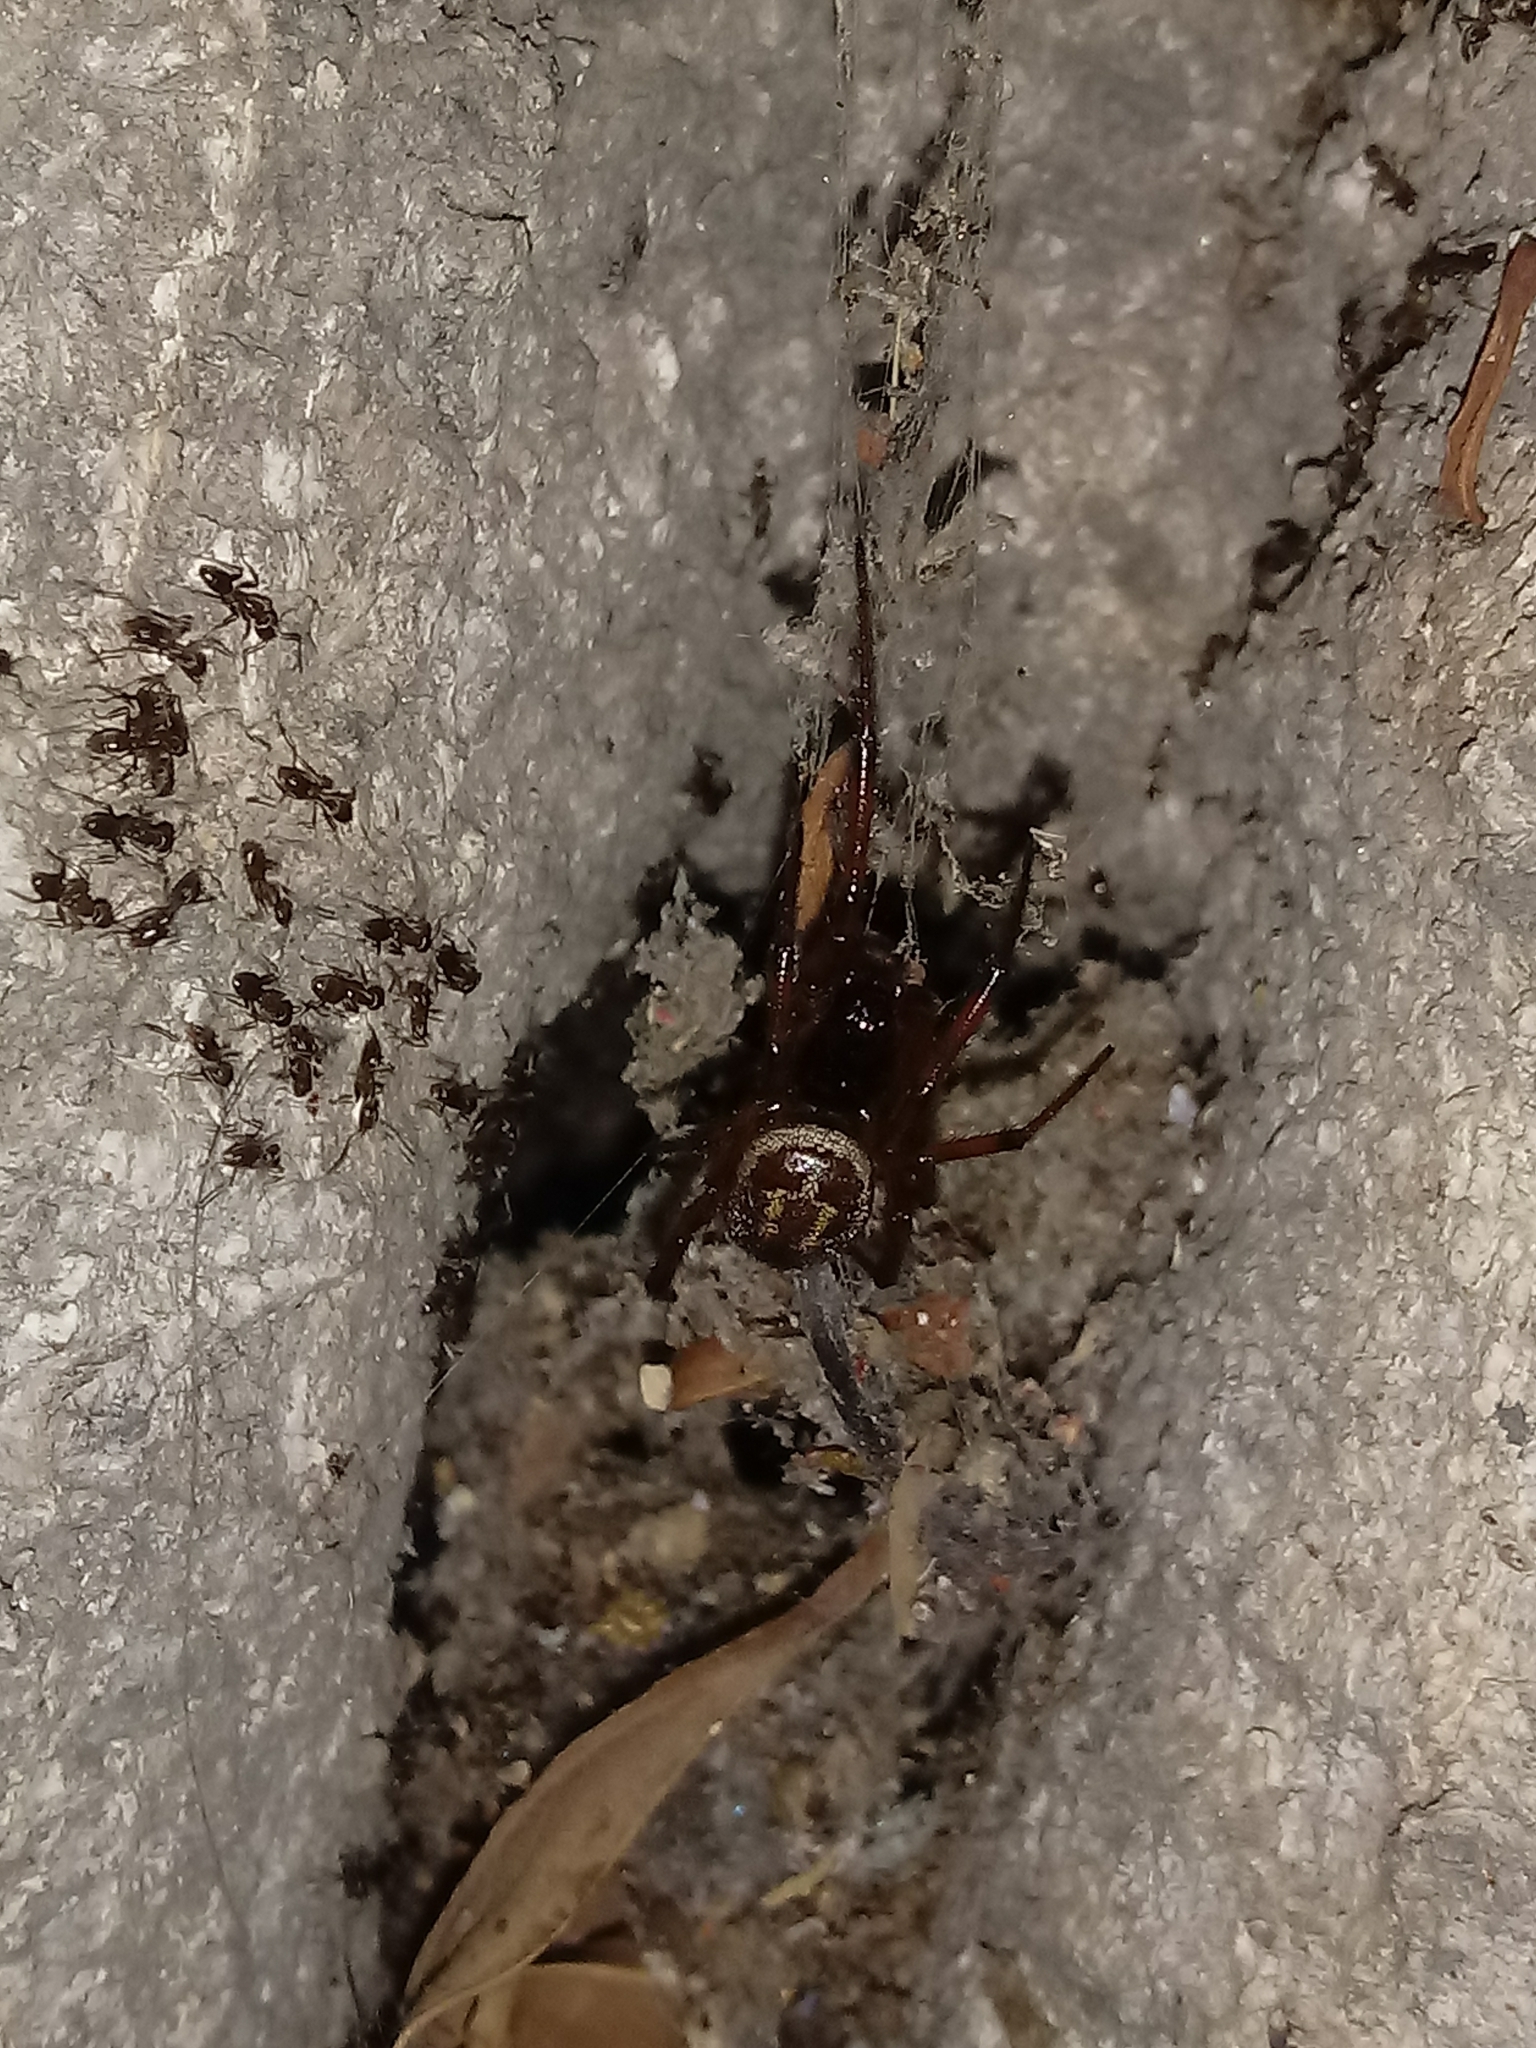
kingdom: Animalia
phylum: Arthropoda
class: Arachnida
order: Araneae
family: Theridiidae
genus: Steatoda
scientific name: Steatoda nobilis
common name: Cobweb weaver
